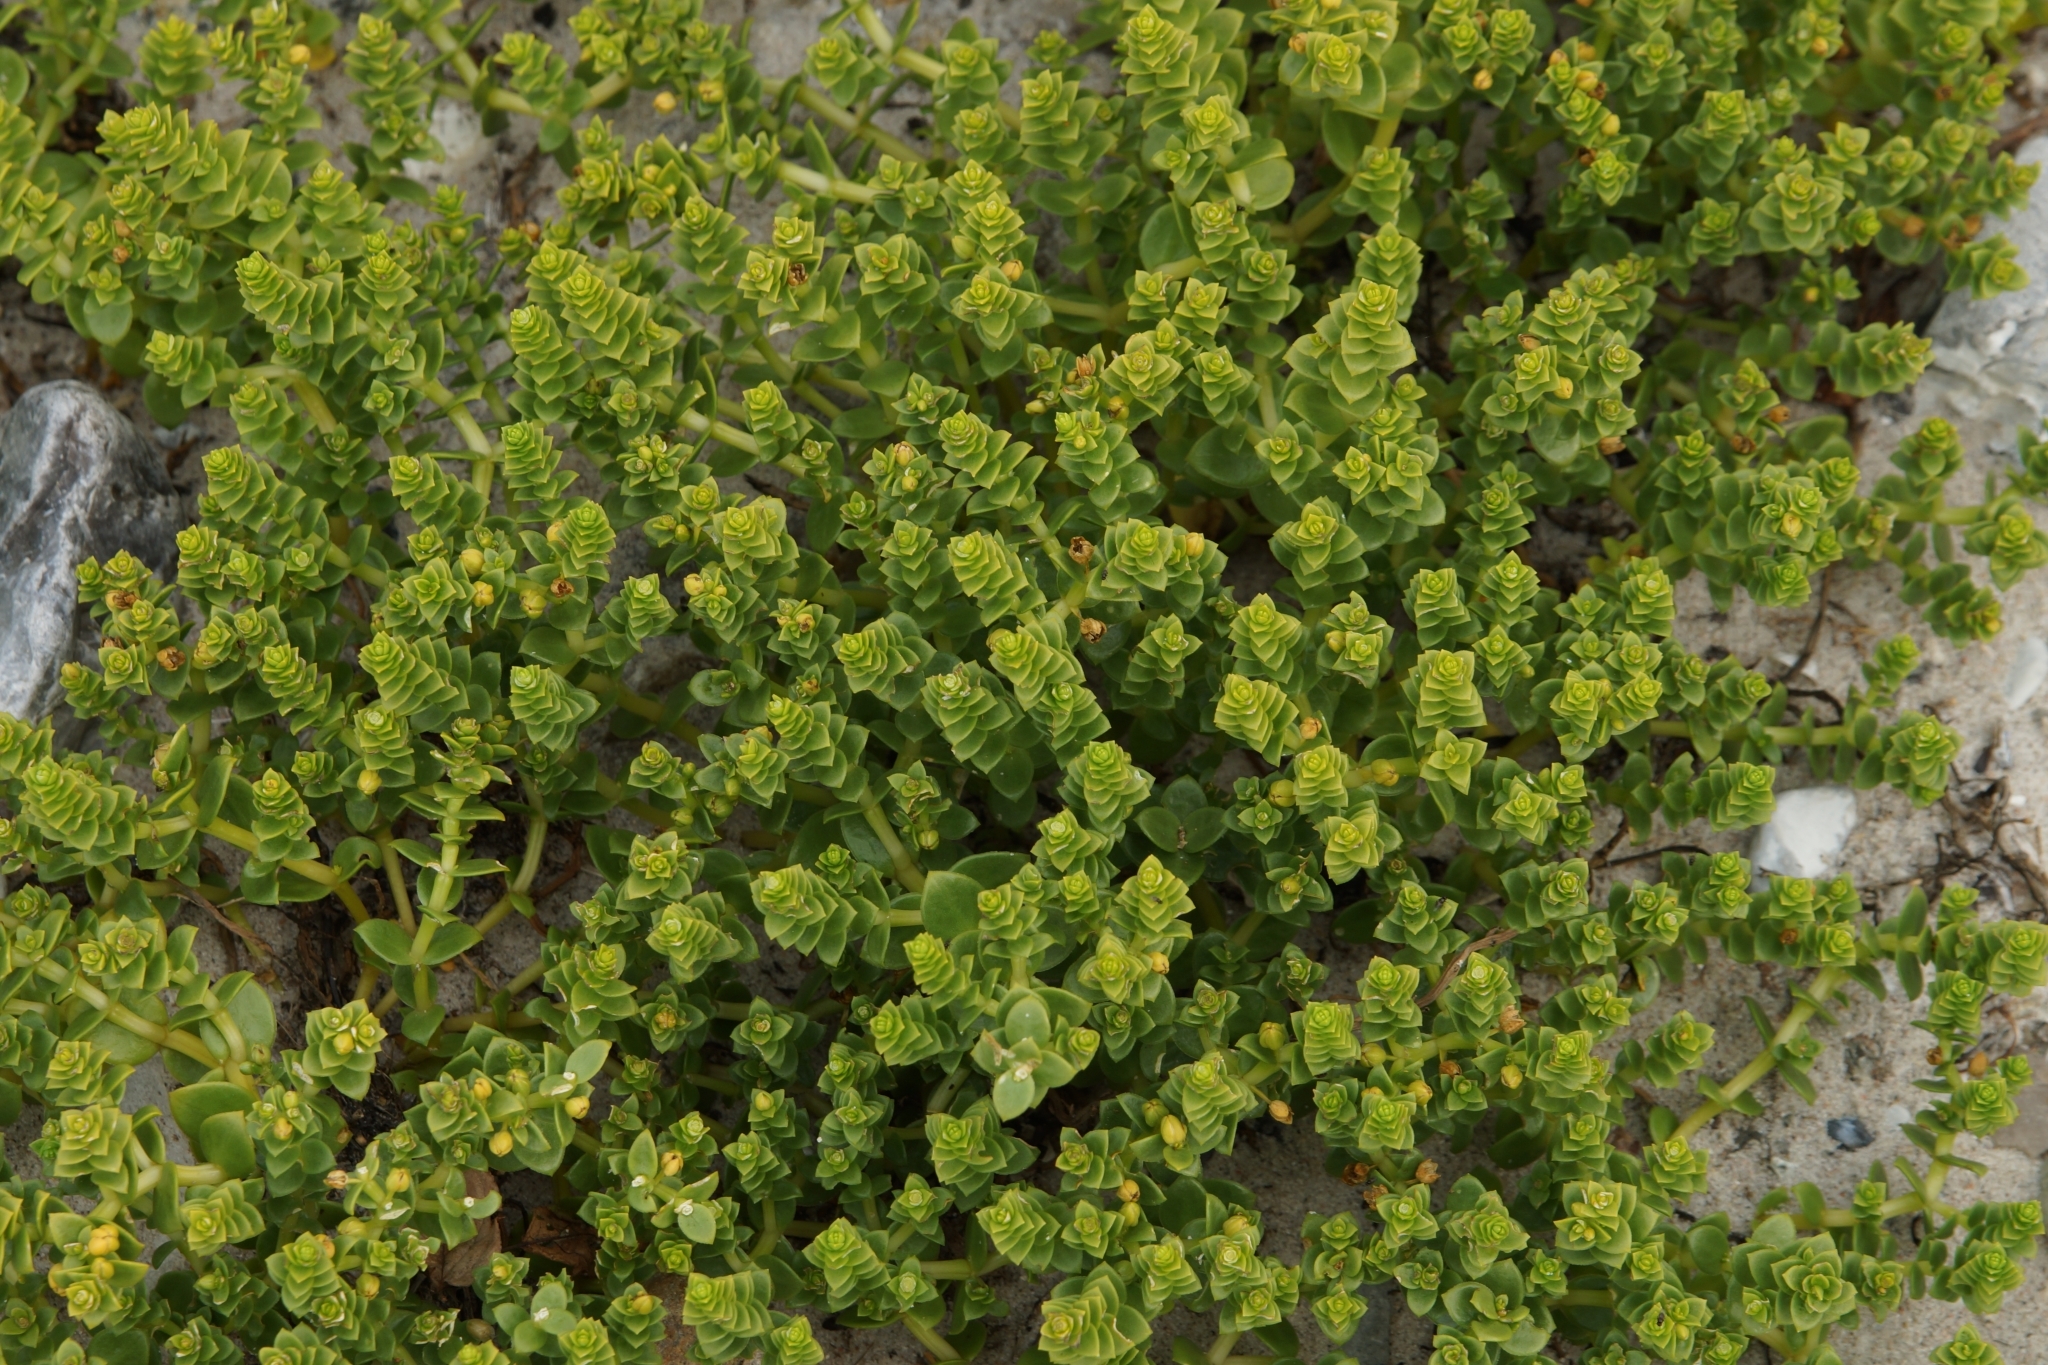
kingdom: Plantae
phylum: Tracheophyta
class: Magnoliopsida
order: Caryophyllales
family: Caryophyllaceae
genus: Honckenya
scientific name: Honckenya peploides
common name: Sea sandwort
